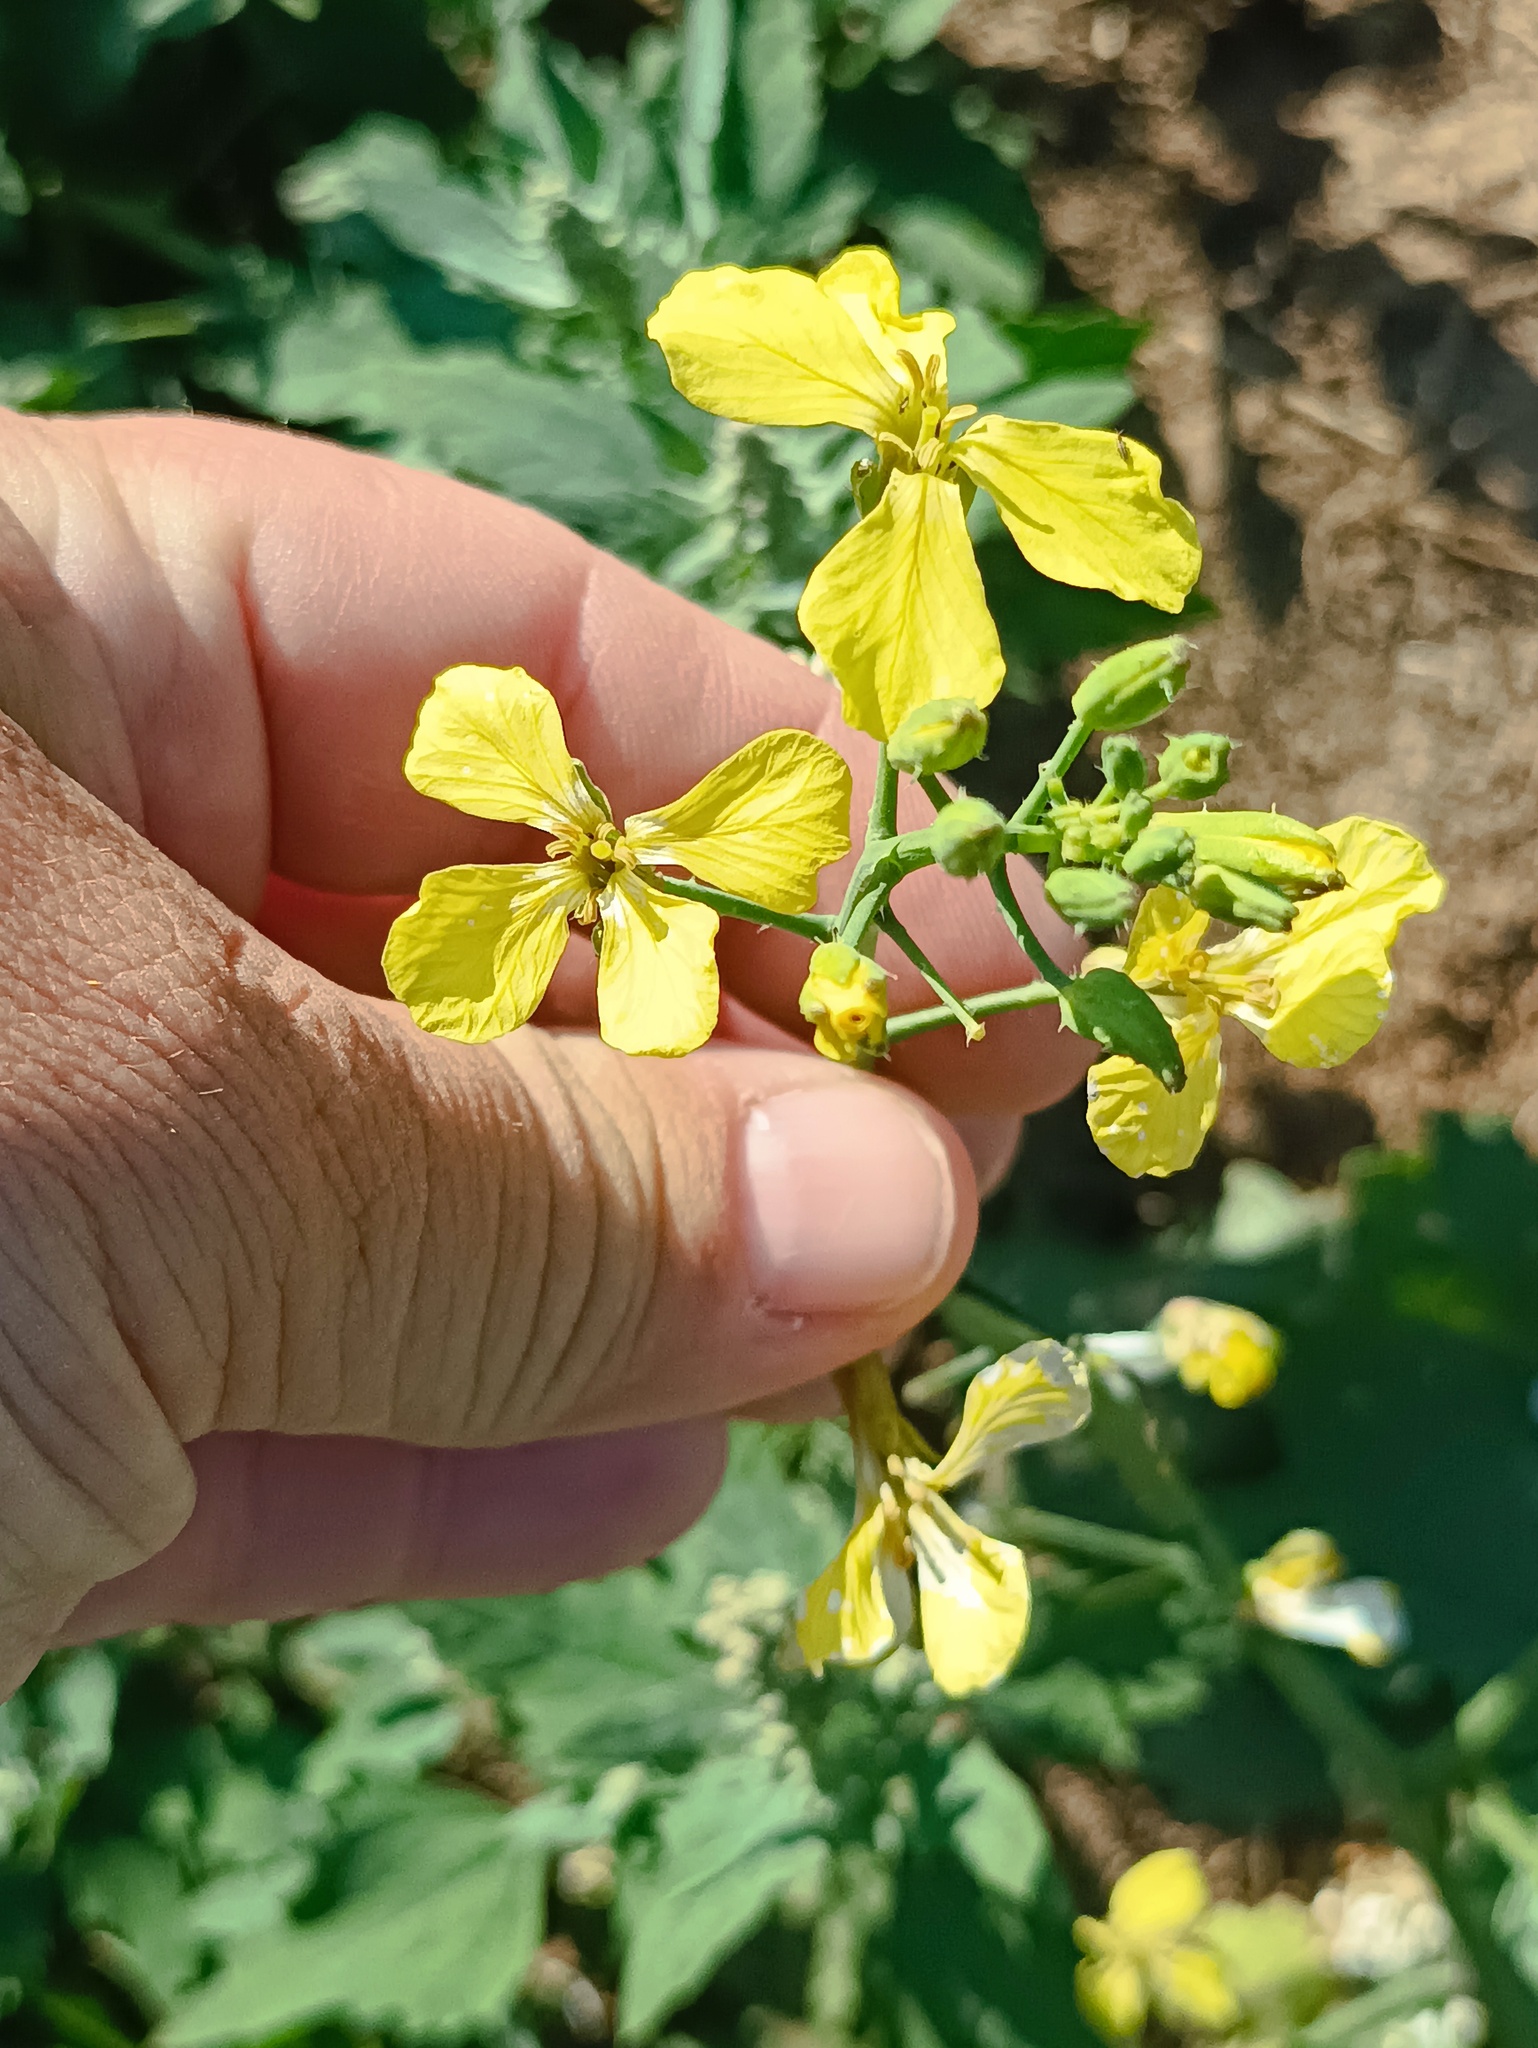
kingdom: Plantae
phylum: Tracheophyta
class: Magnoliopsida
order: Brassicales
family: Brassicaceae
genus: Raphanus
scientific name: Raphanus raphanistrum
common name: Wild radish
